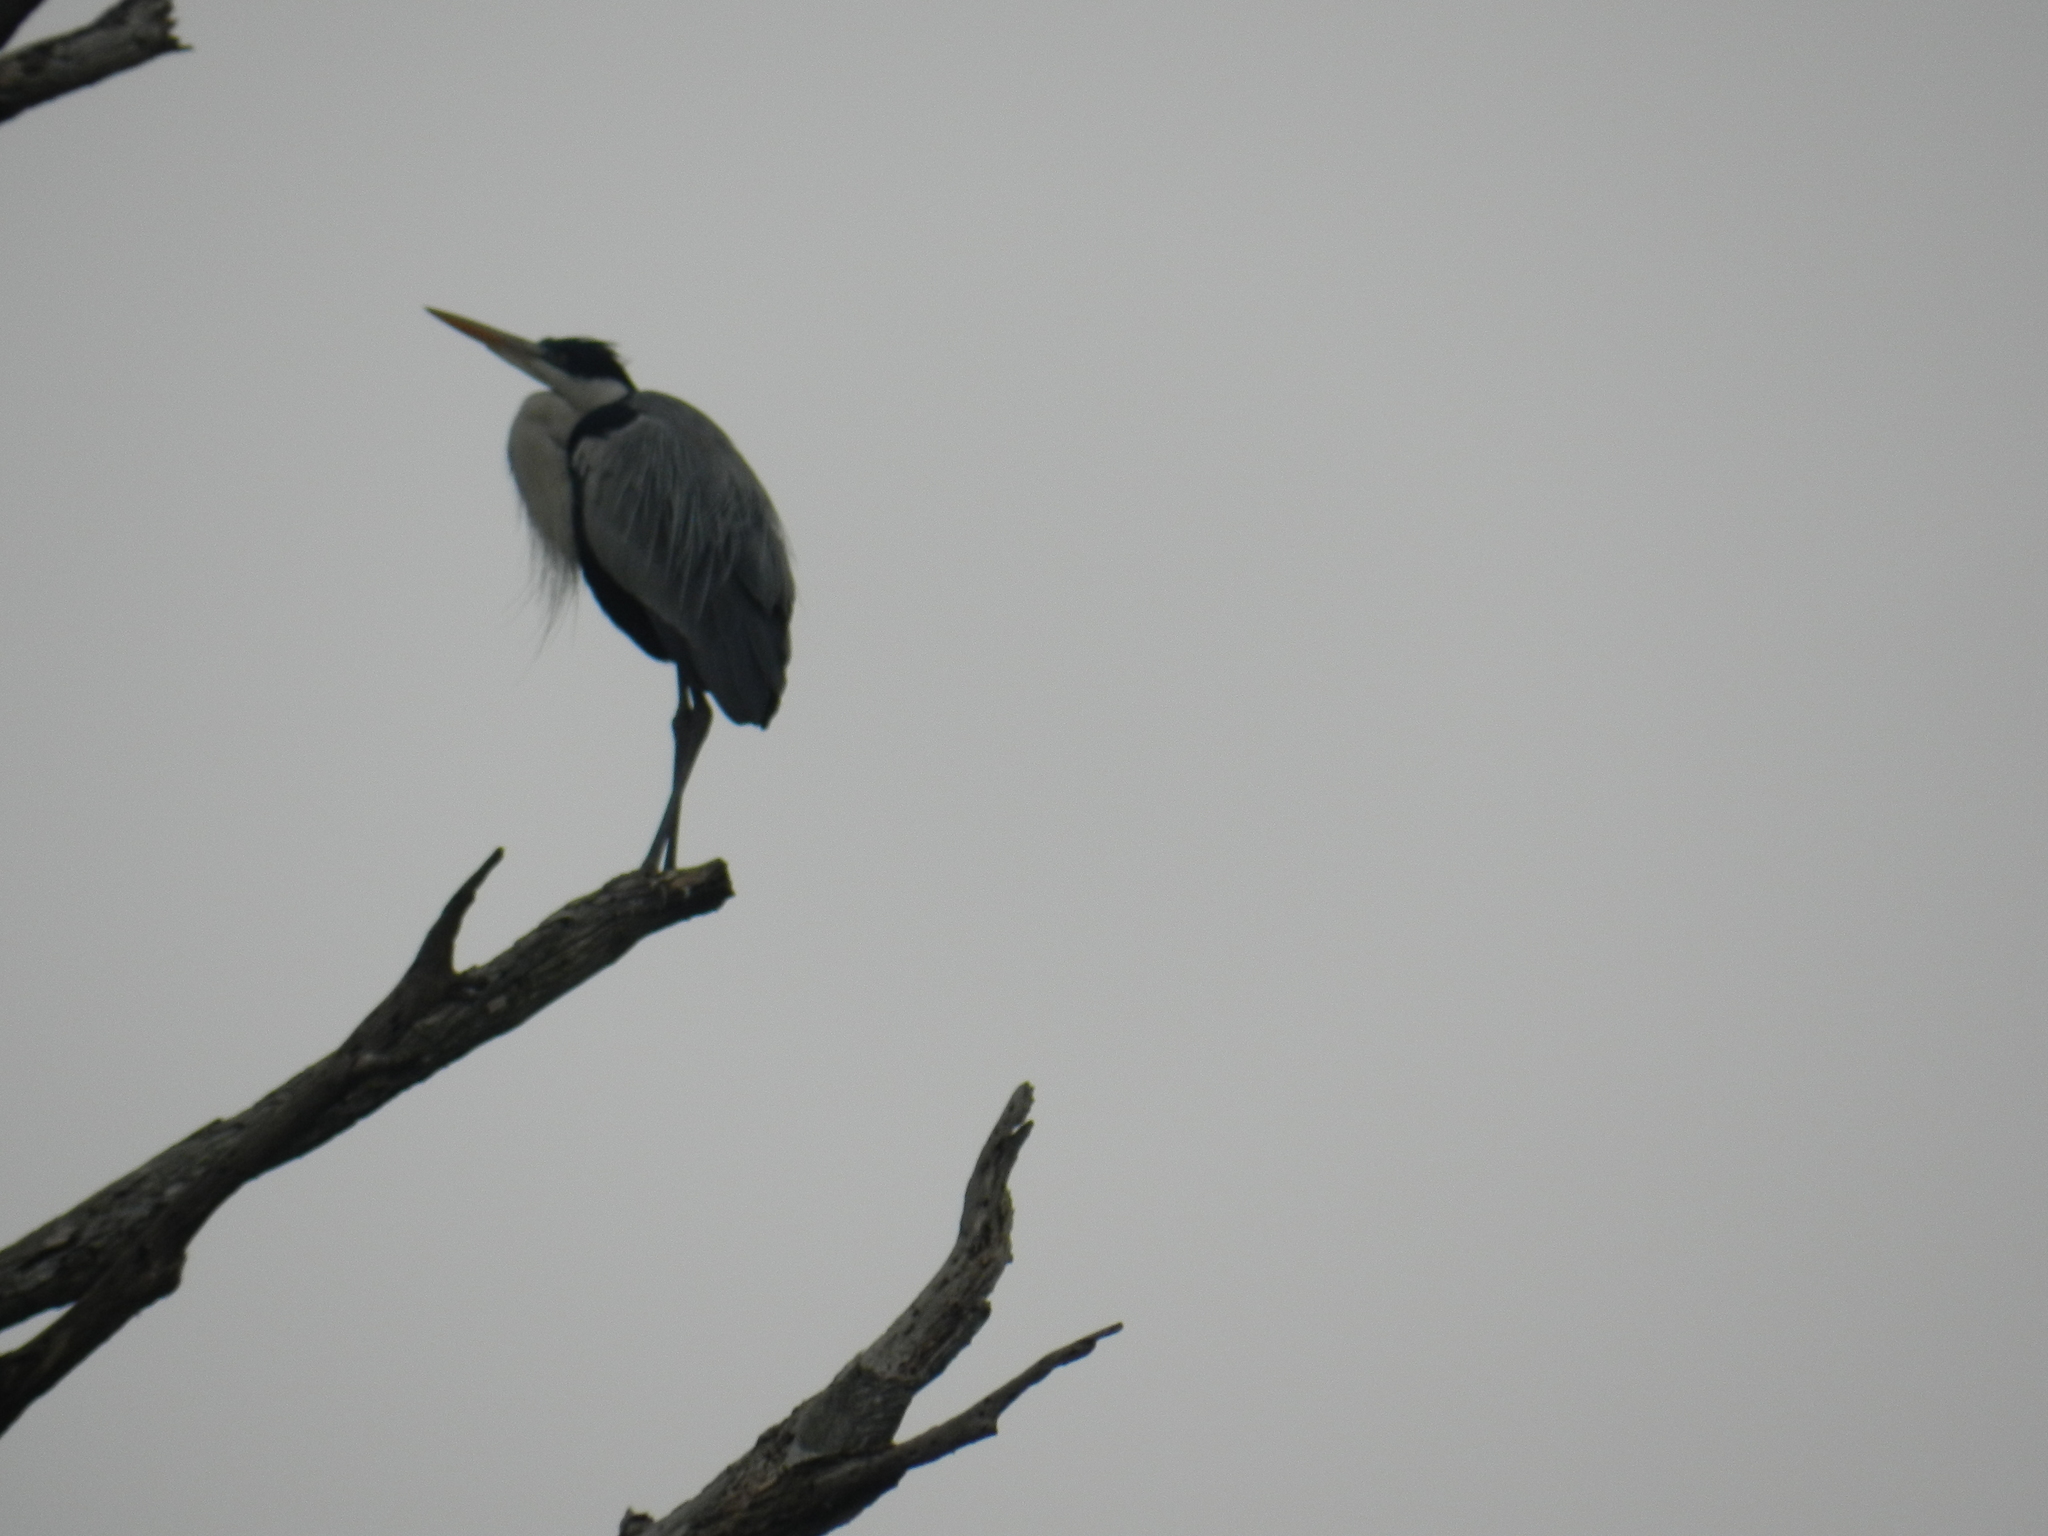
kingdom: Animalia
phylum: Chordata
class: Aves
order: Pelecaniformes
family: Ardeidae
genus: Ardea
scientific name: Ardea cocoi
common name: Cocoi heron
